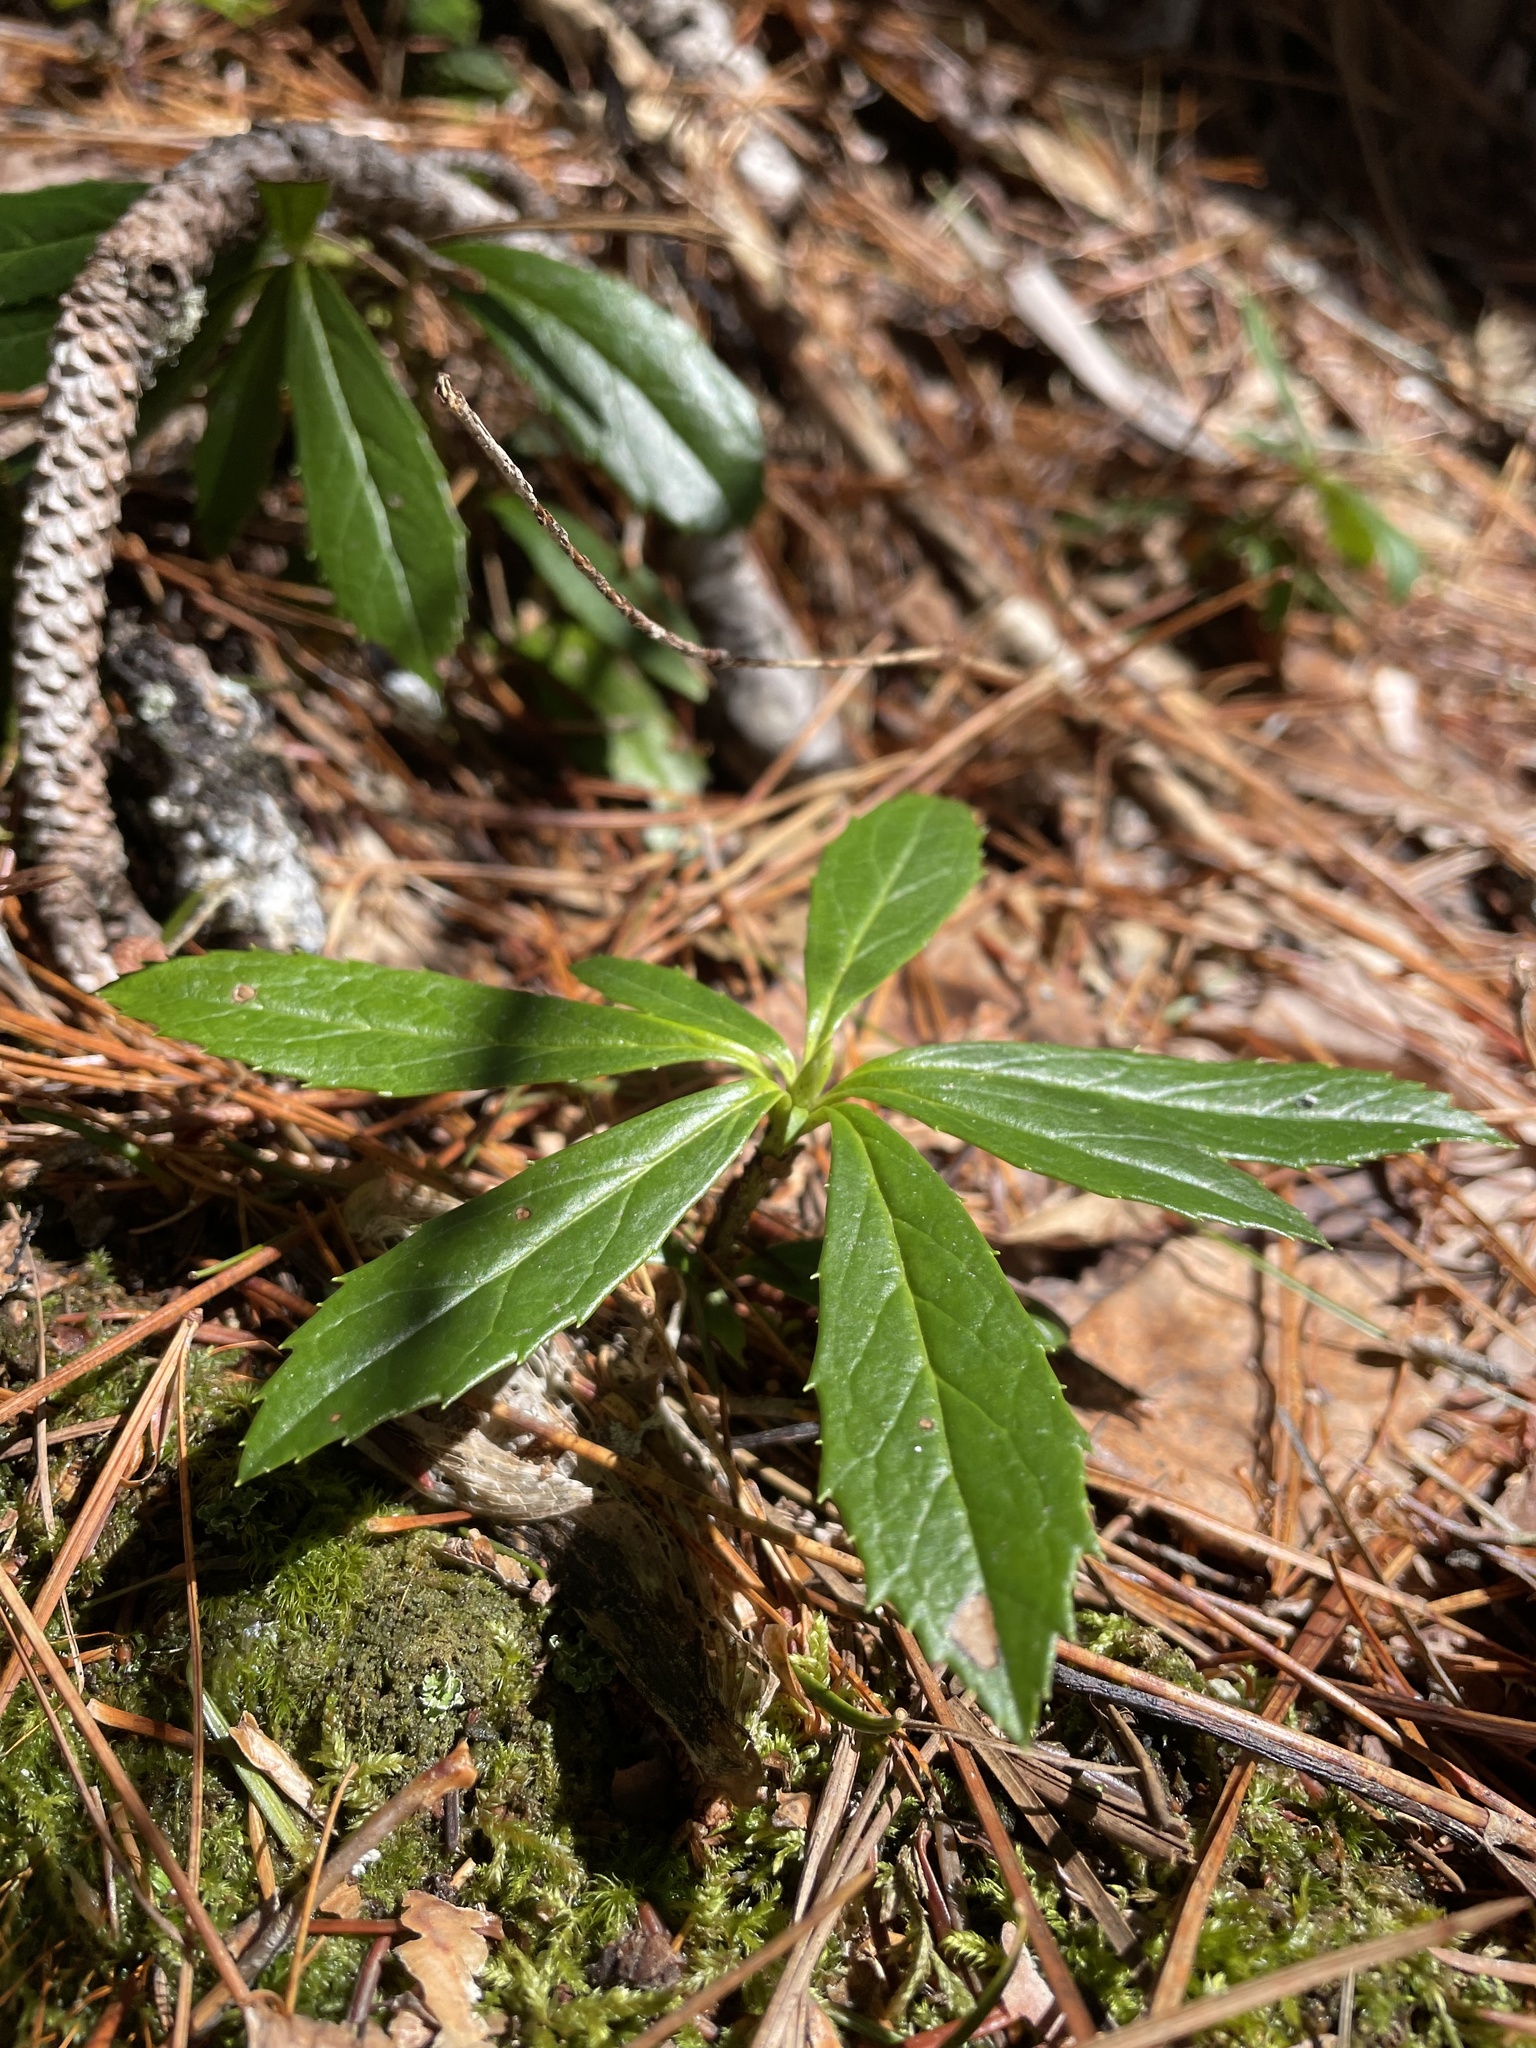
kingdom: Plantae
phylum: Tracheophyta
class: Magnoliopsida
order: Ericales
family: Ericaceae
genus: Chimaphila
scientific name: Chimaphila umbellata
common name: Pipsissewa
